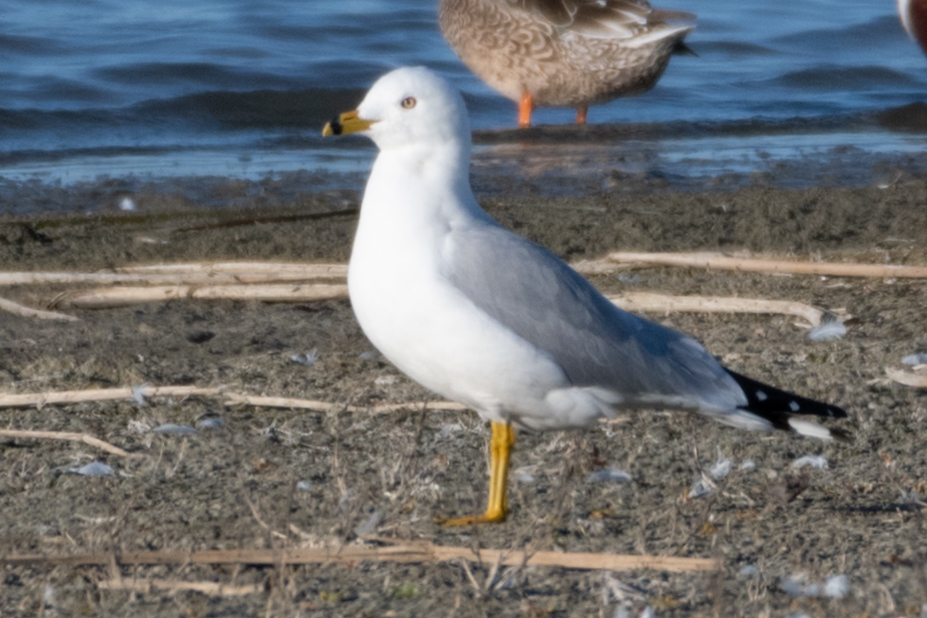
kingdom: Animalia
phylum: Chordata
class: Aves
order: Charadriiformes
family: Laridae
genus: Larus
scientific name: Larus delawarensis
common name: Ring-billed gull
